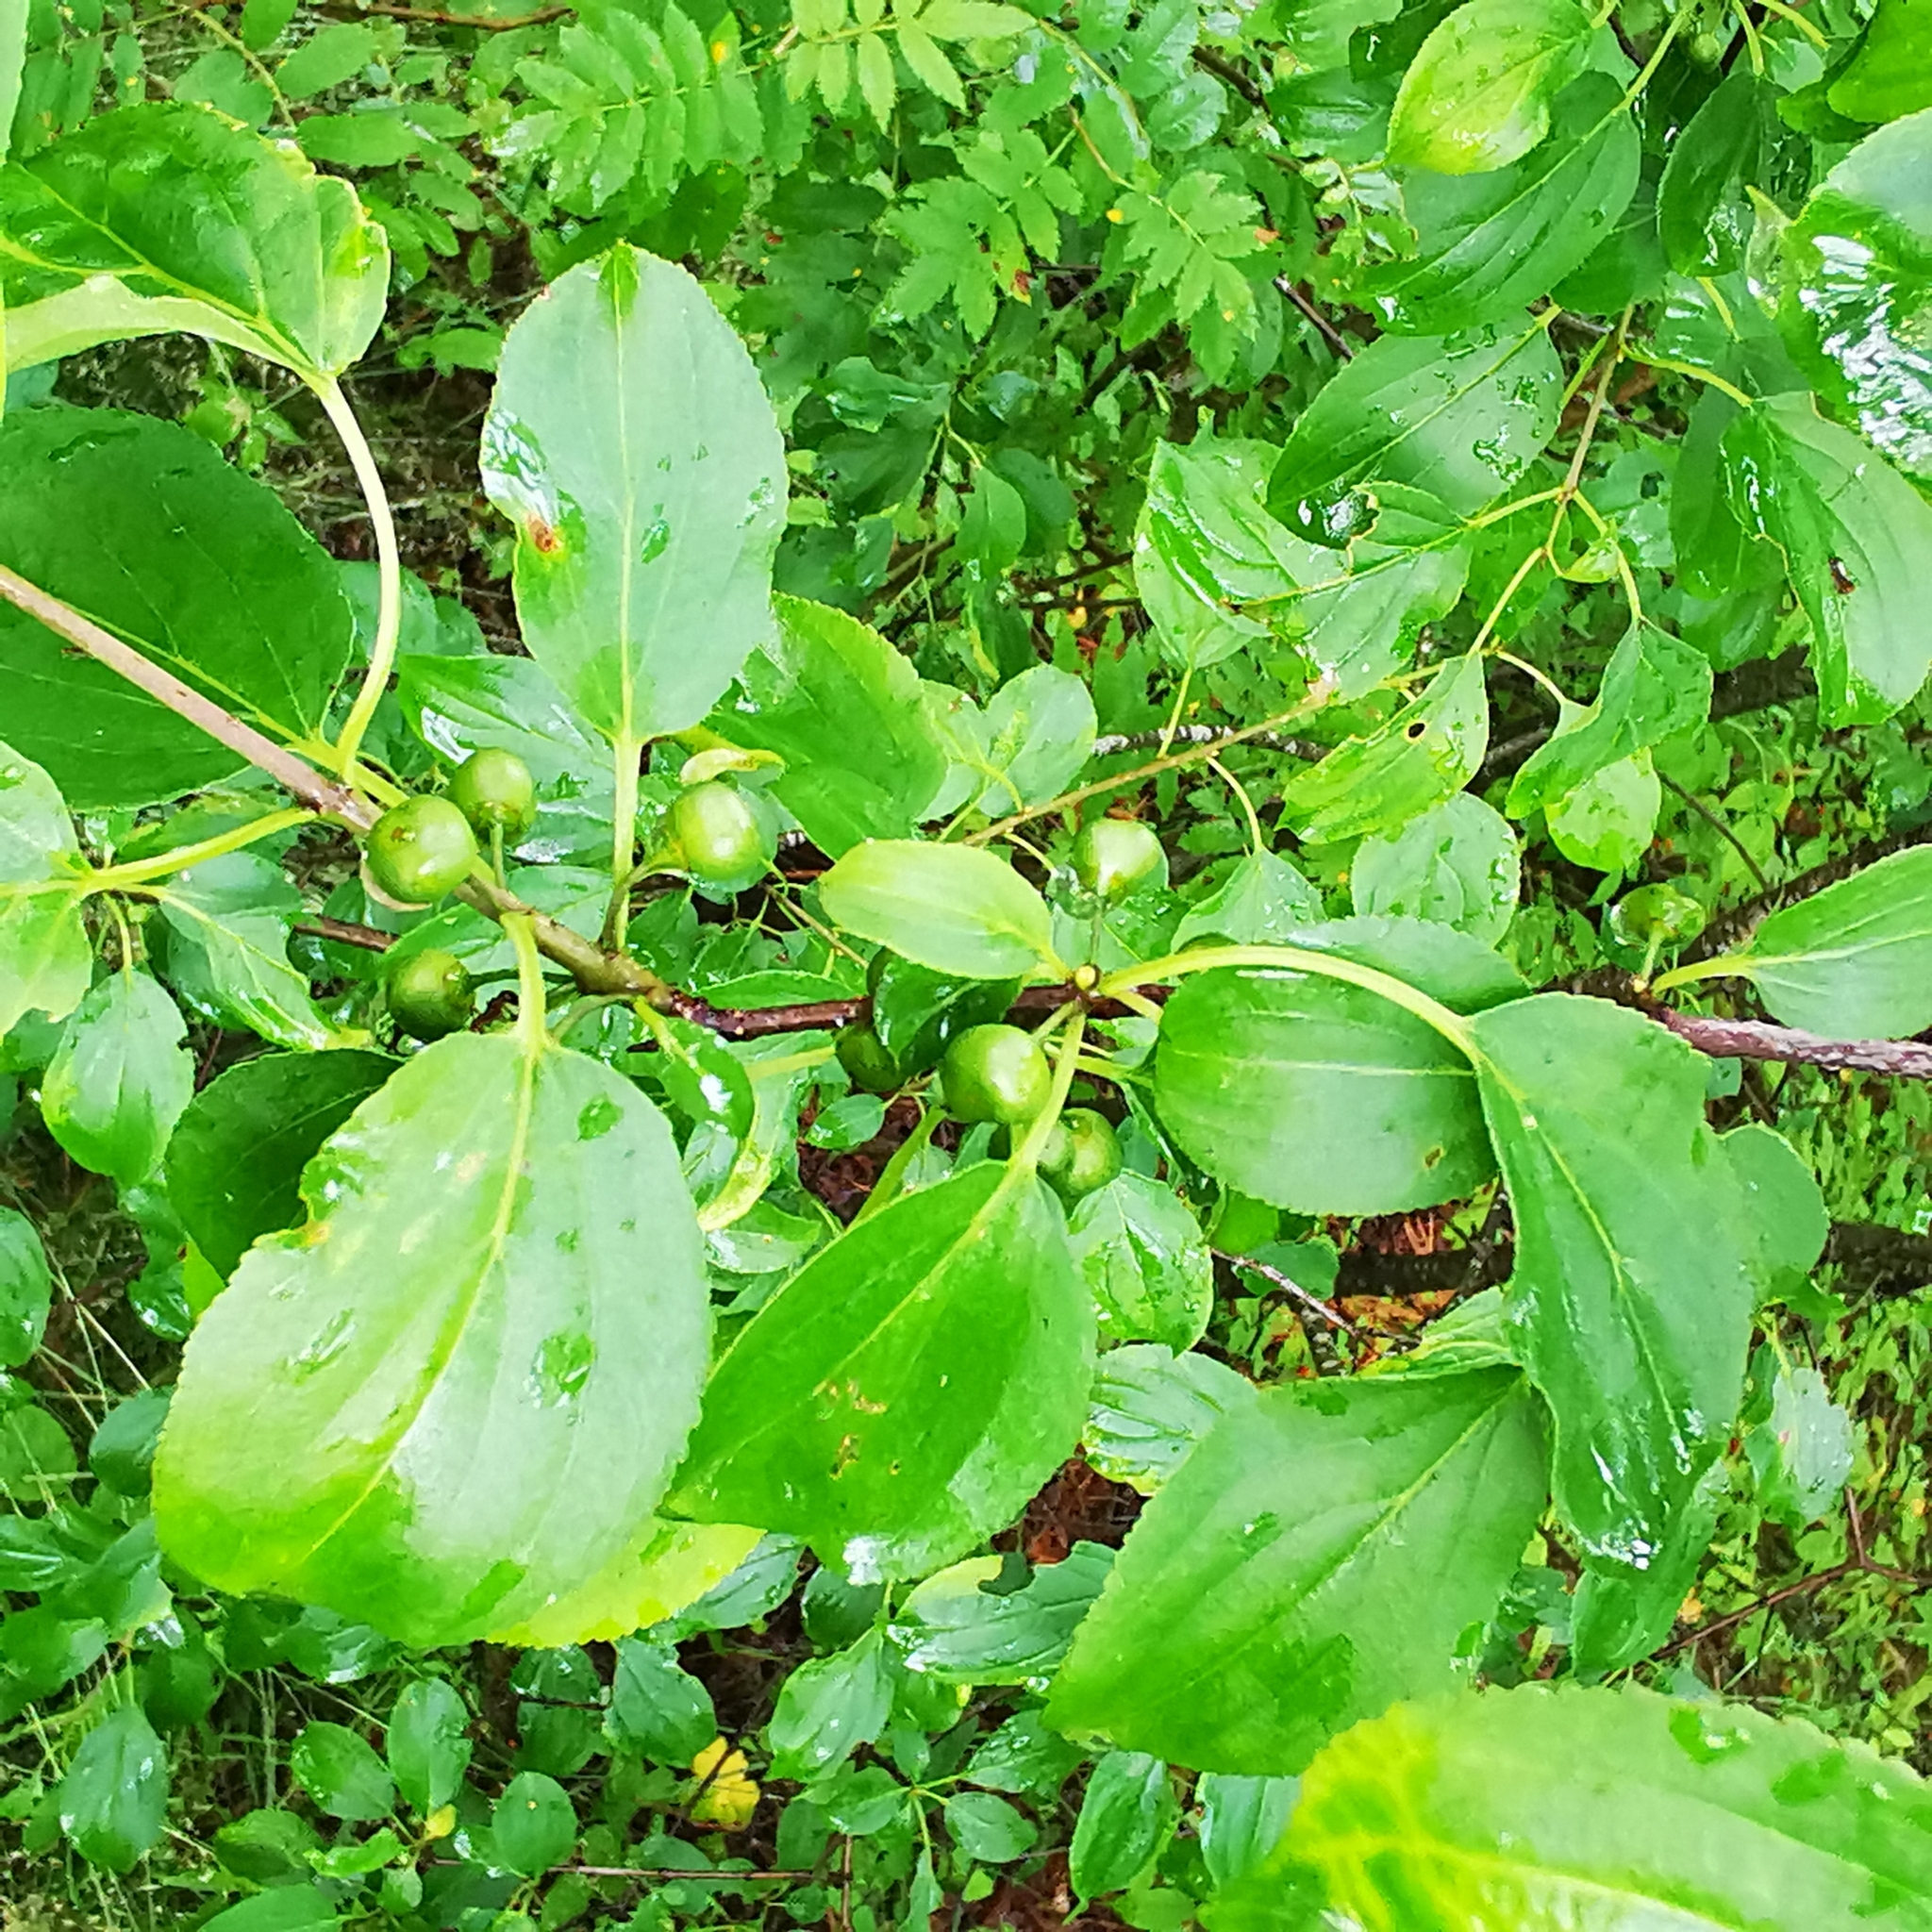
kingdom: Plantae
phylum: Tracheophyta
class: Magnoliopsida
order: Rosales
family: Rhamnaceae
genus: Rhamnus
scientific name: Rhamnus cathartica
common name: Common buckthorn
